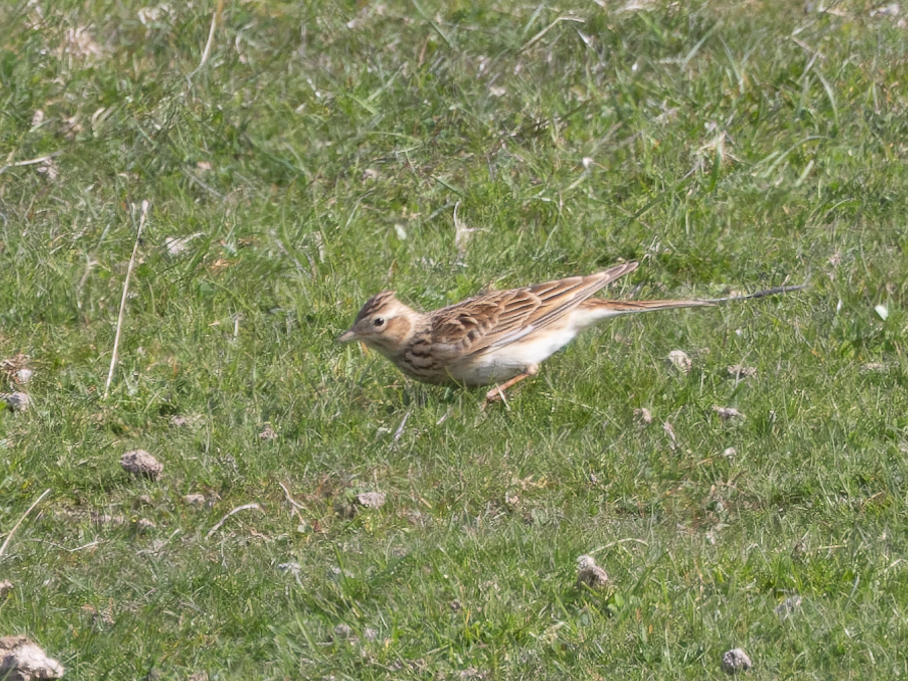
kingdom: Animalia
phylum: Chordata
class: Aves
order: Passeriformes
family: Alaudidae
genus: Alauda
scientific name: Alauda arvensis
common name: Eurasian skylark
